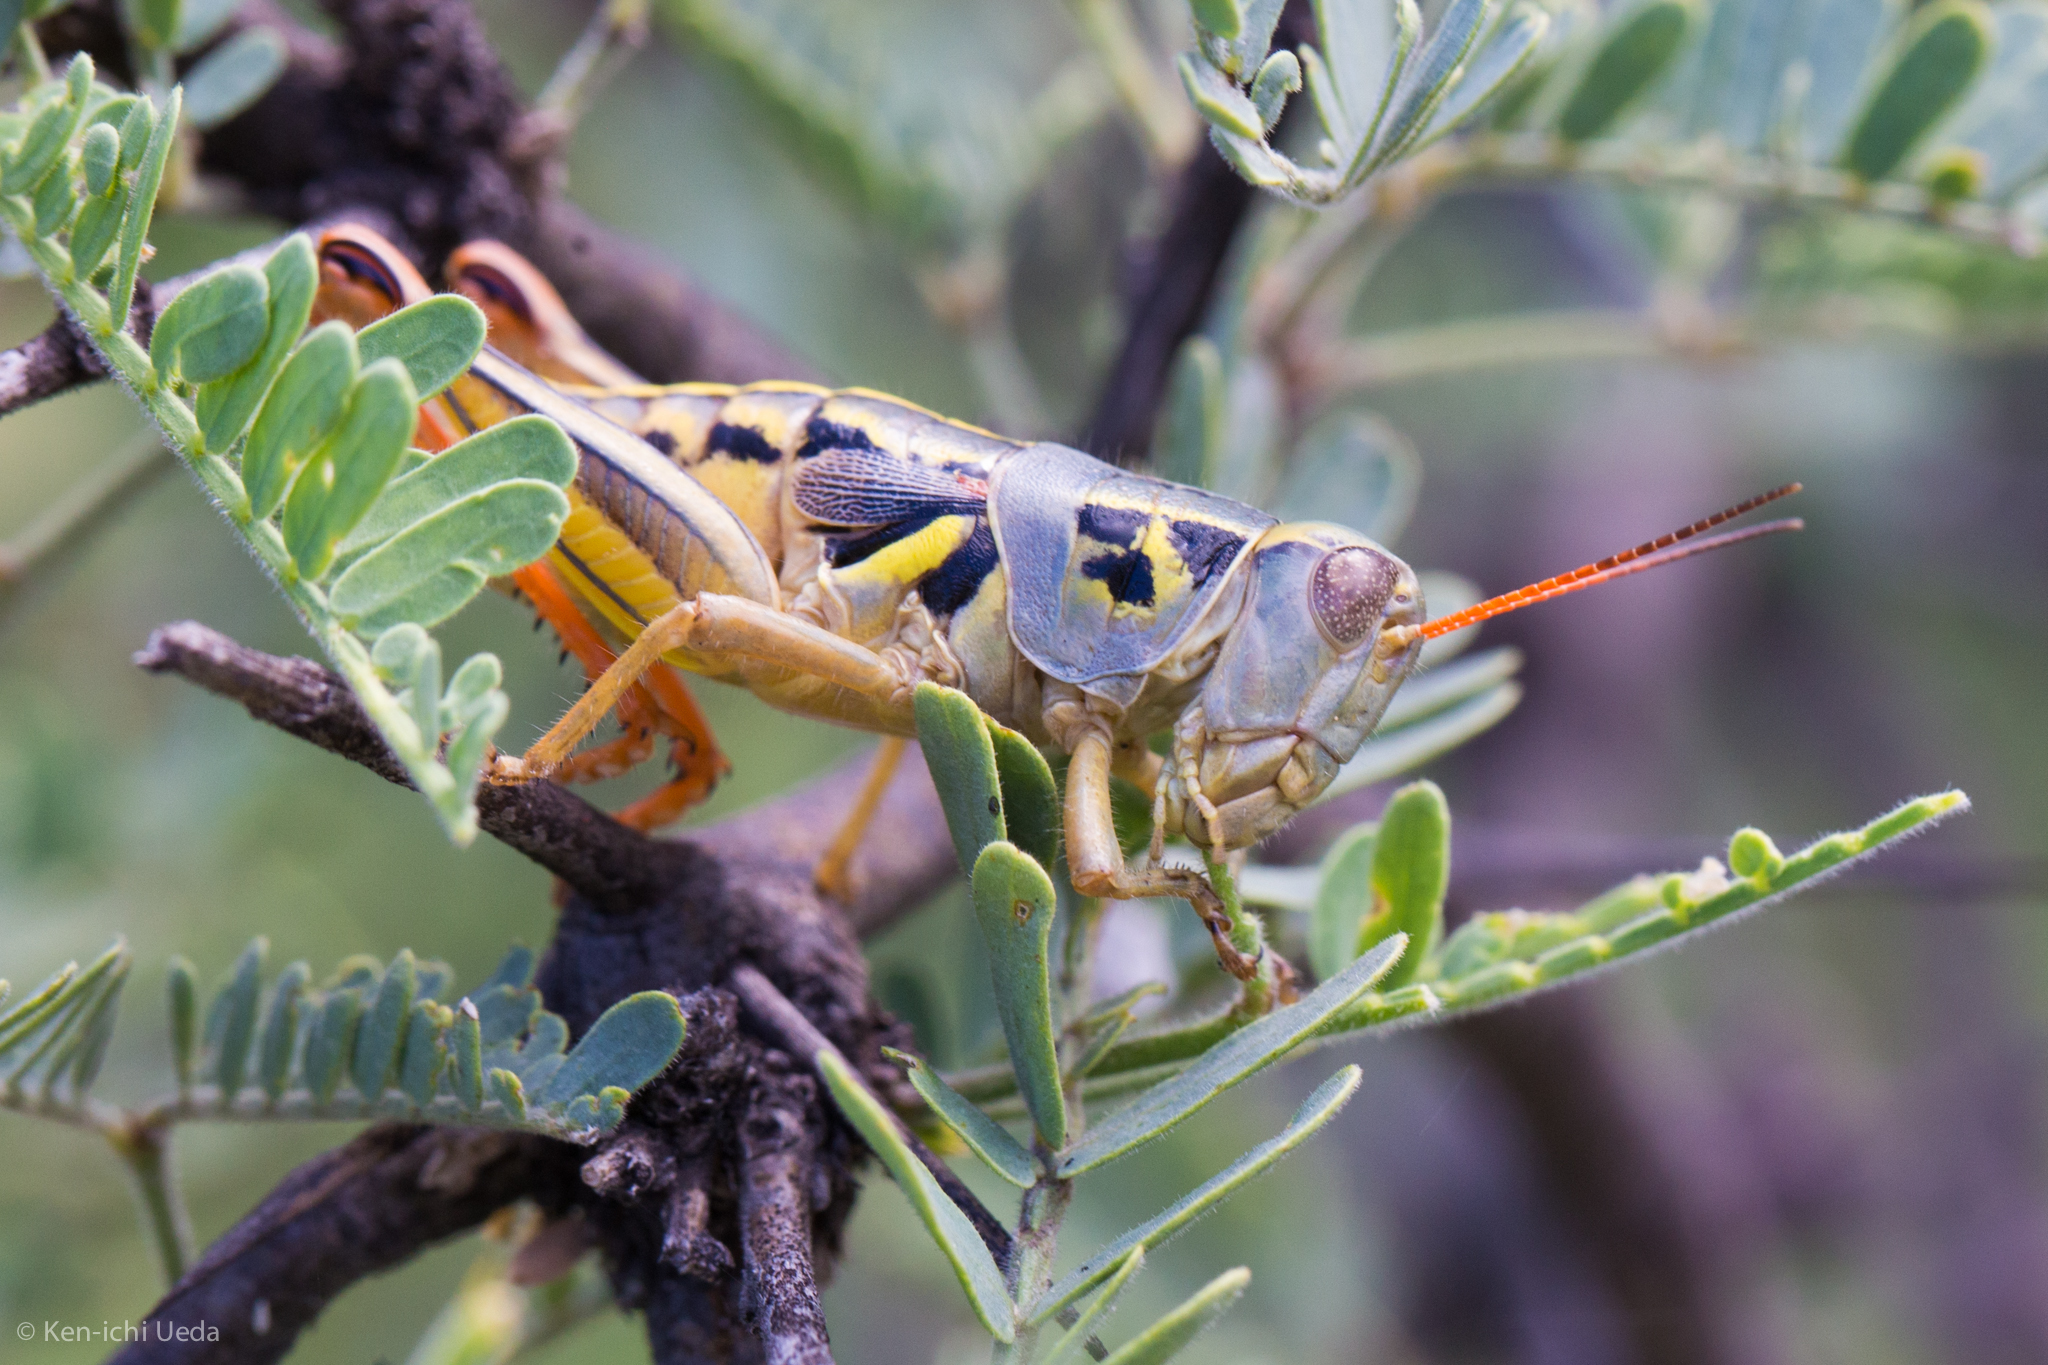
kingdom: Animalia
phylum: Arthropoda
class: Insecta
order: Orthoptera
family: Acrididae
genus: Barytettix
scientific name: Barytettix humphreysii
